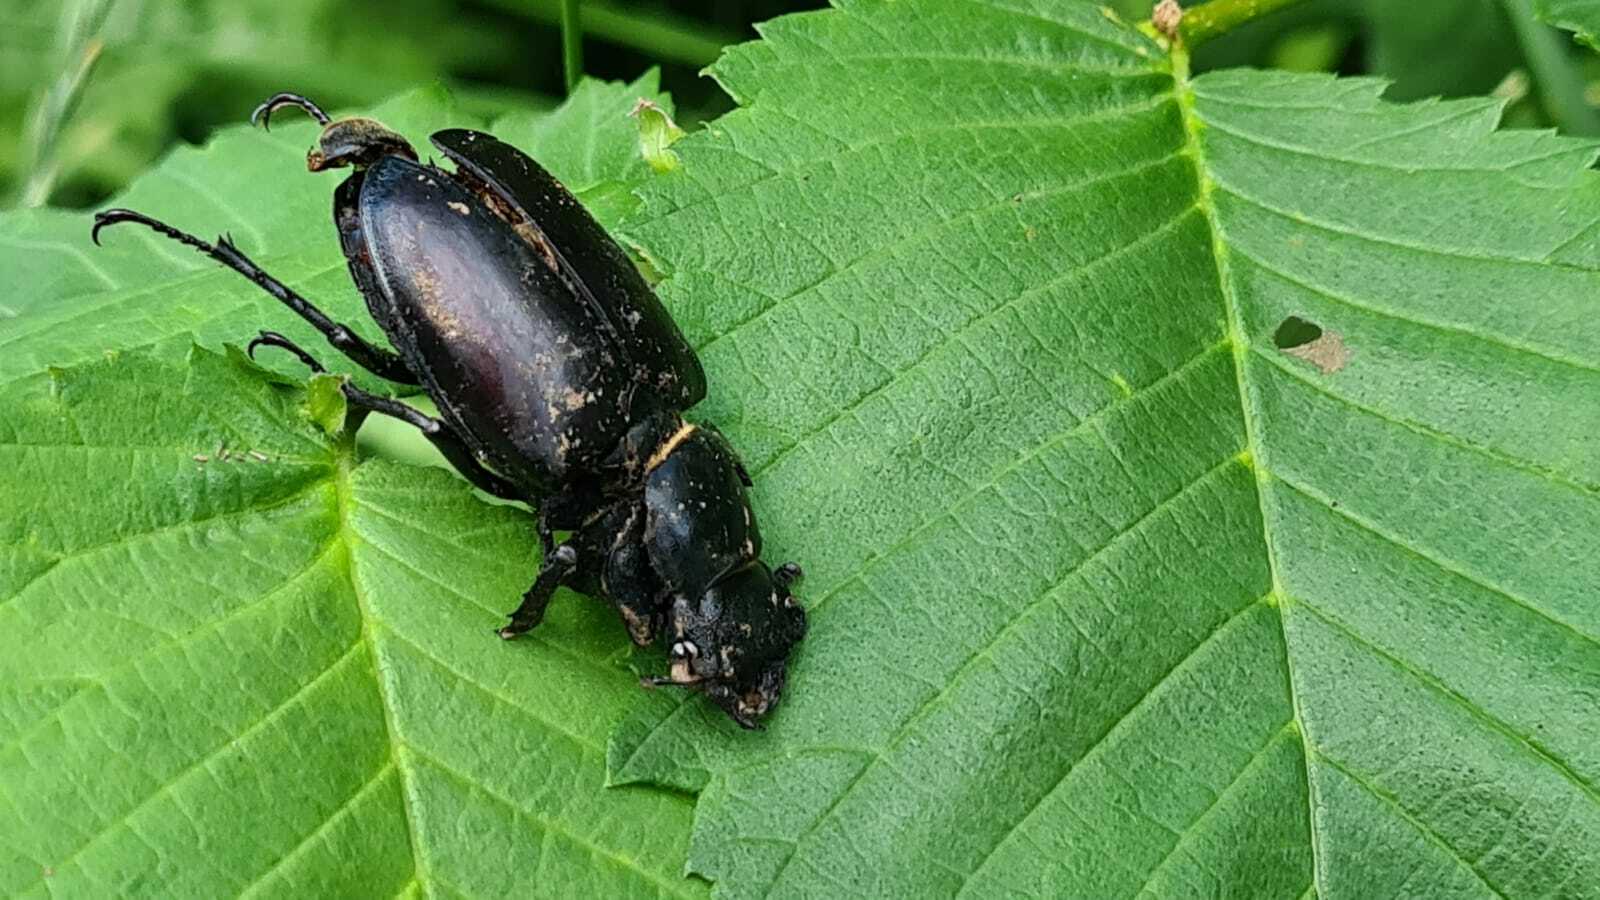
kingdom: Animalia
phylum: Arthropoda
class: Insecta
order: Coleoptera
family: Lucanidae
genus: Lucanus
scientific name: Lucanus cervus
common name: Stag beetle
